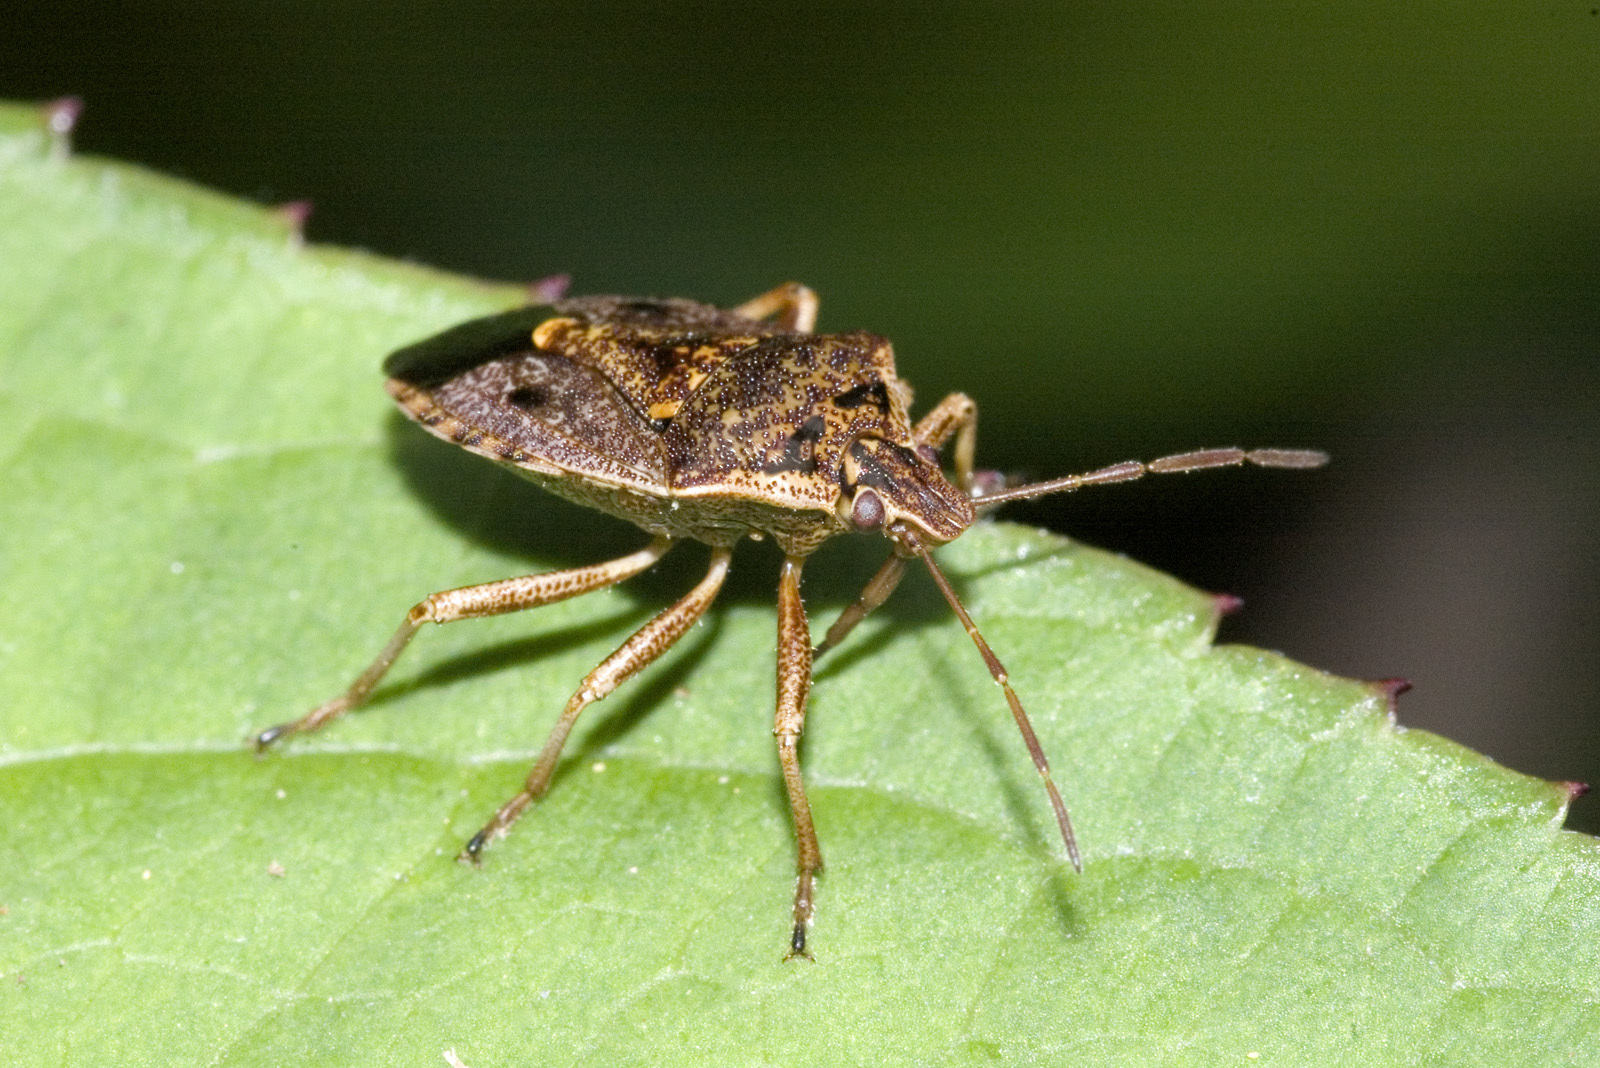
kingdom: Animalia
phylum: Arthropoda
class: Insecta
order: Hemiptera
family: Pentatomidae
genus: Cermatulus
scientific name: Cermatulus nasalis
